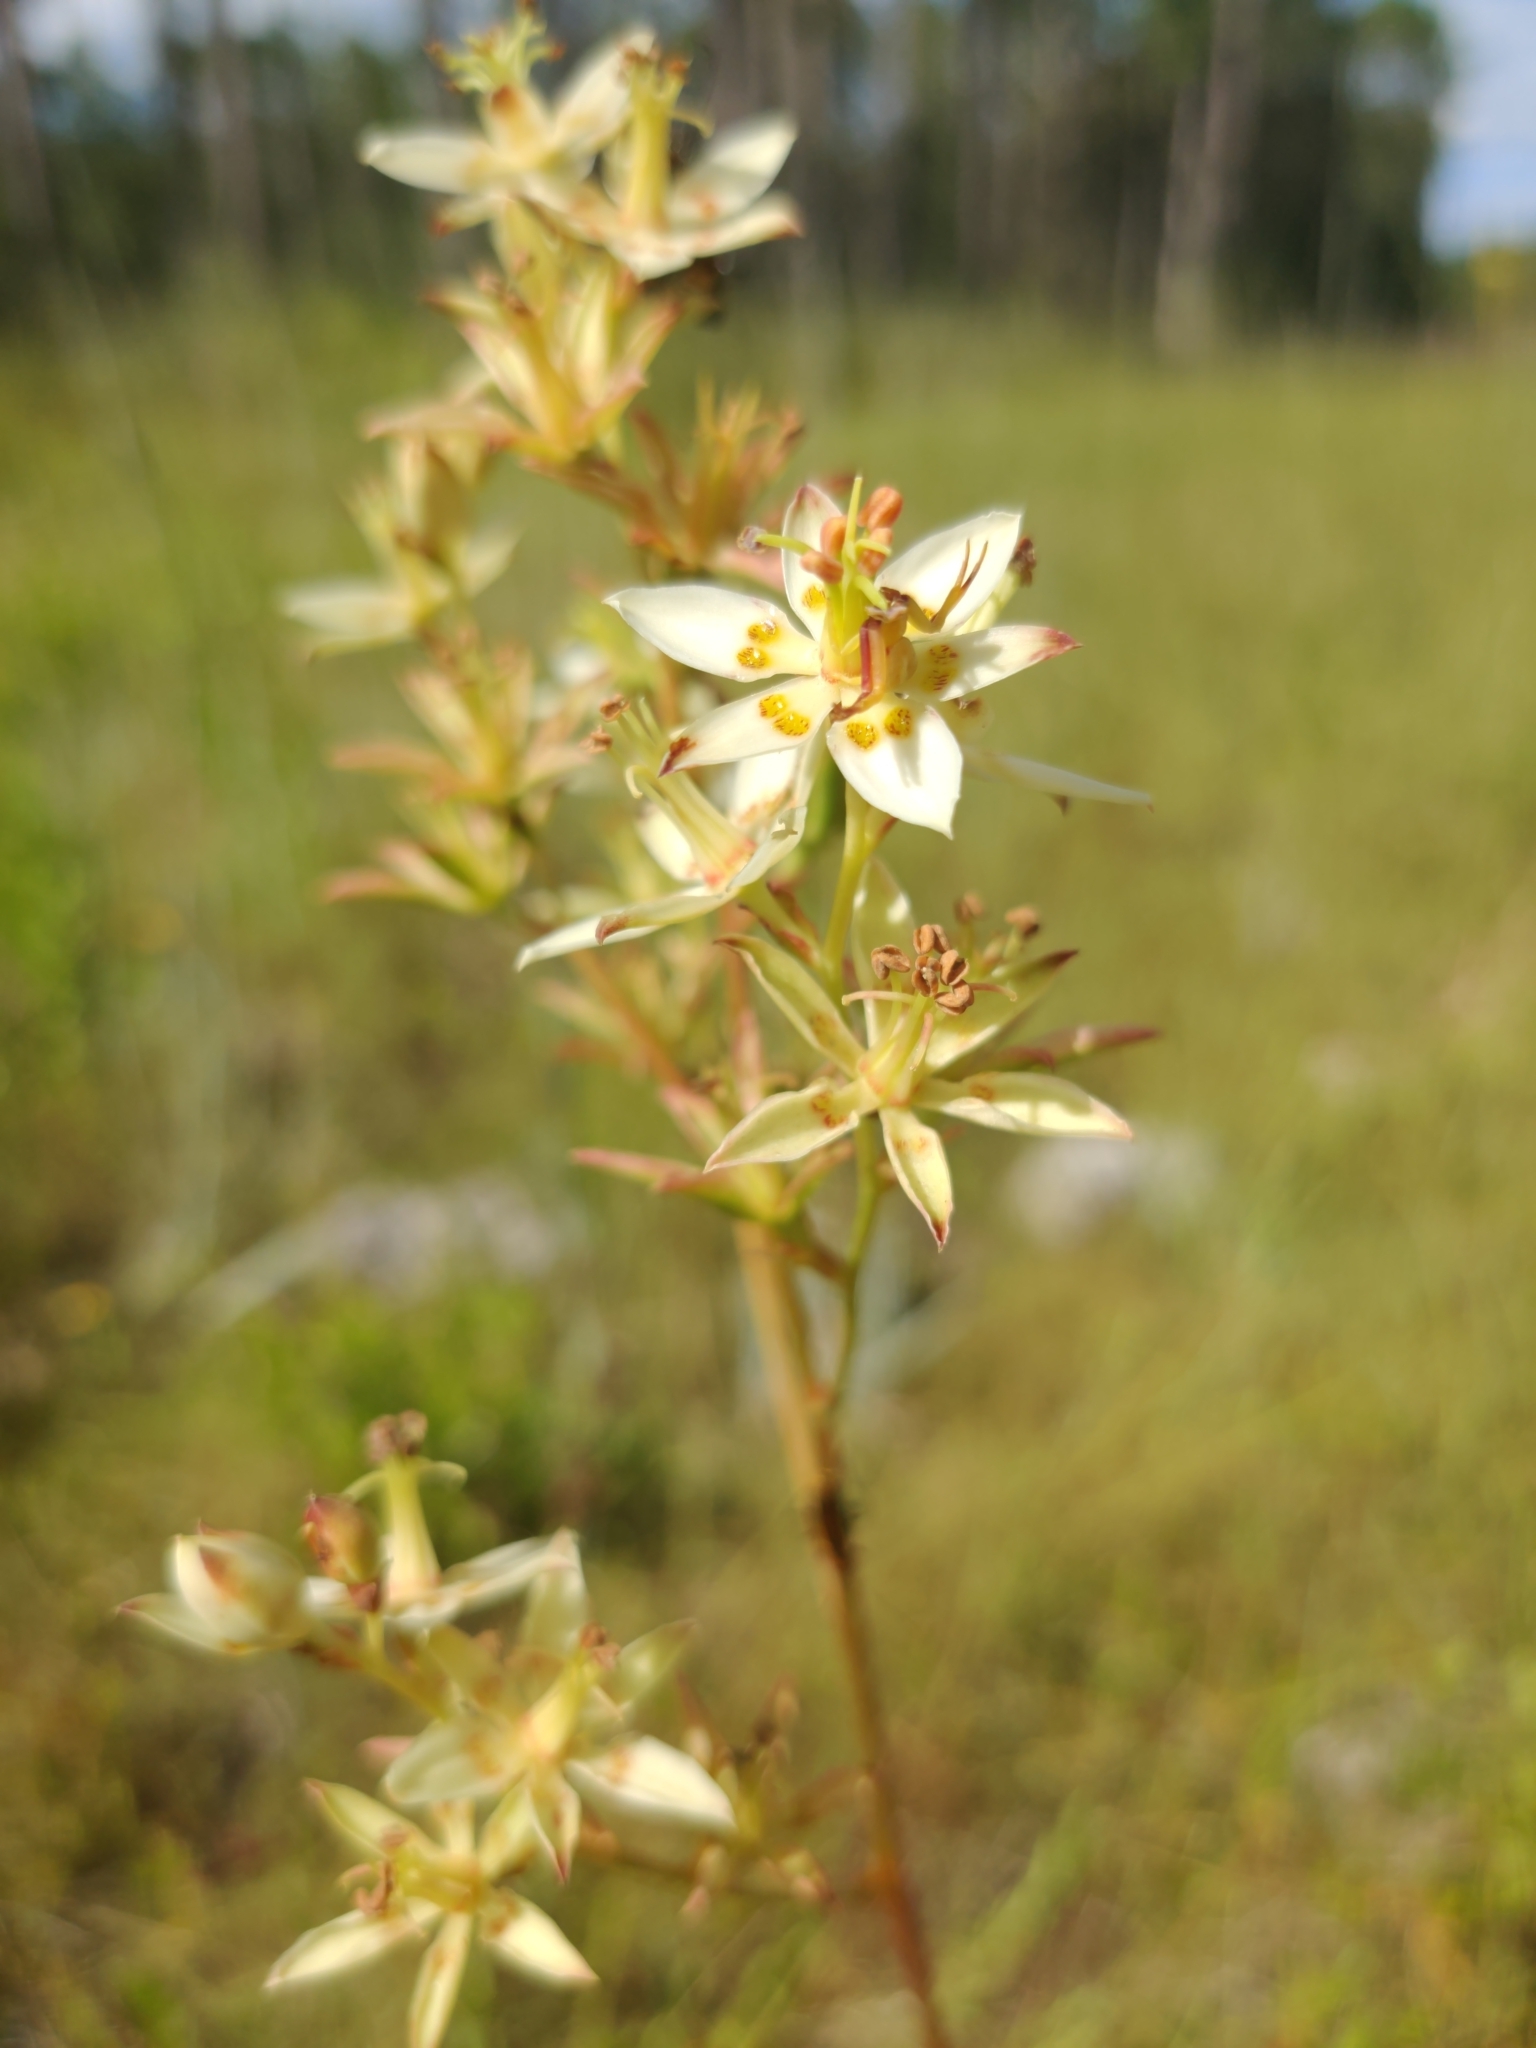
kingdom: Plantae
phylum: Tracheophyta
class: Liliopsida
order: Liliales
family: Melanthiaceae
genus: Zigadenus
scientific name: Zigadenus glaberrimus
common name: Sandbog death camas
